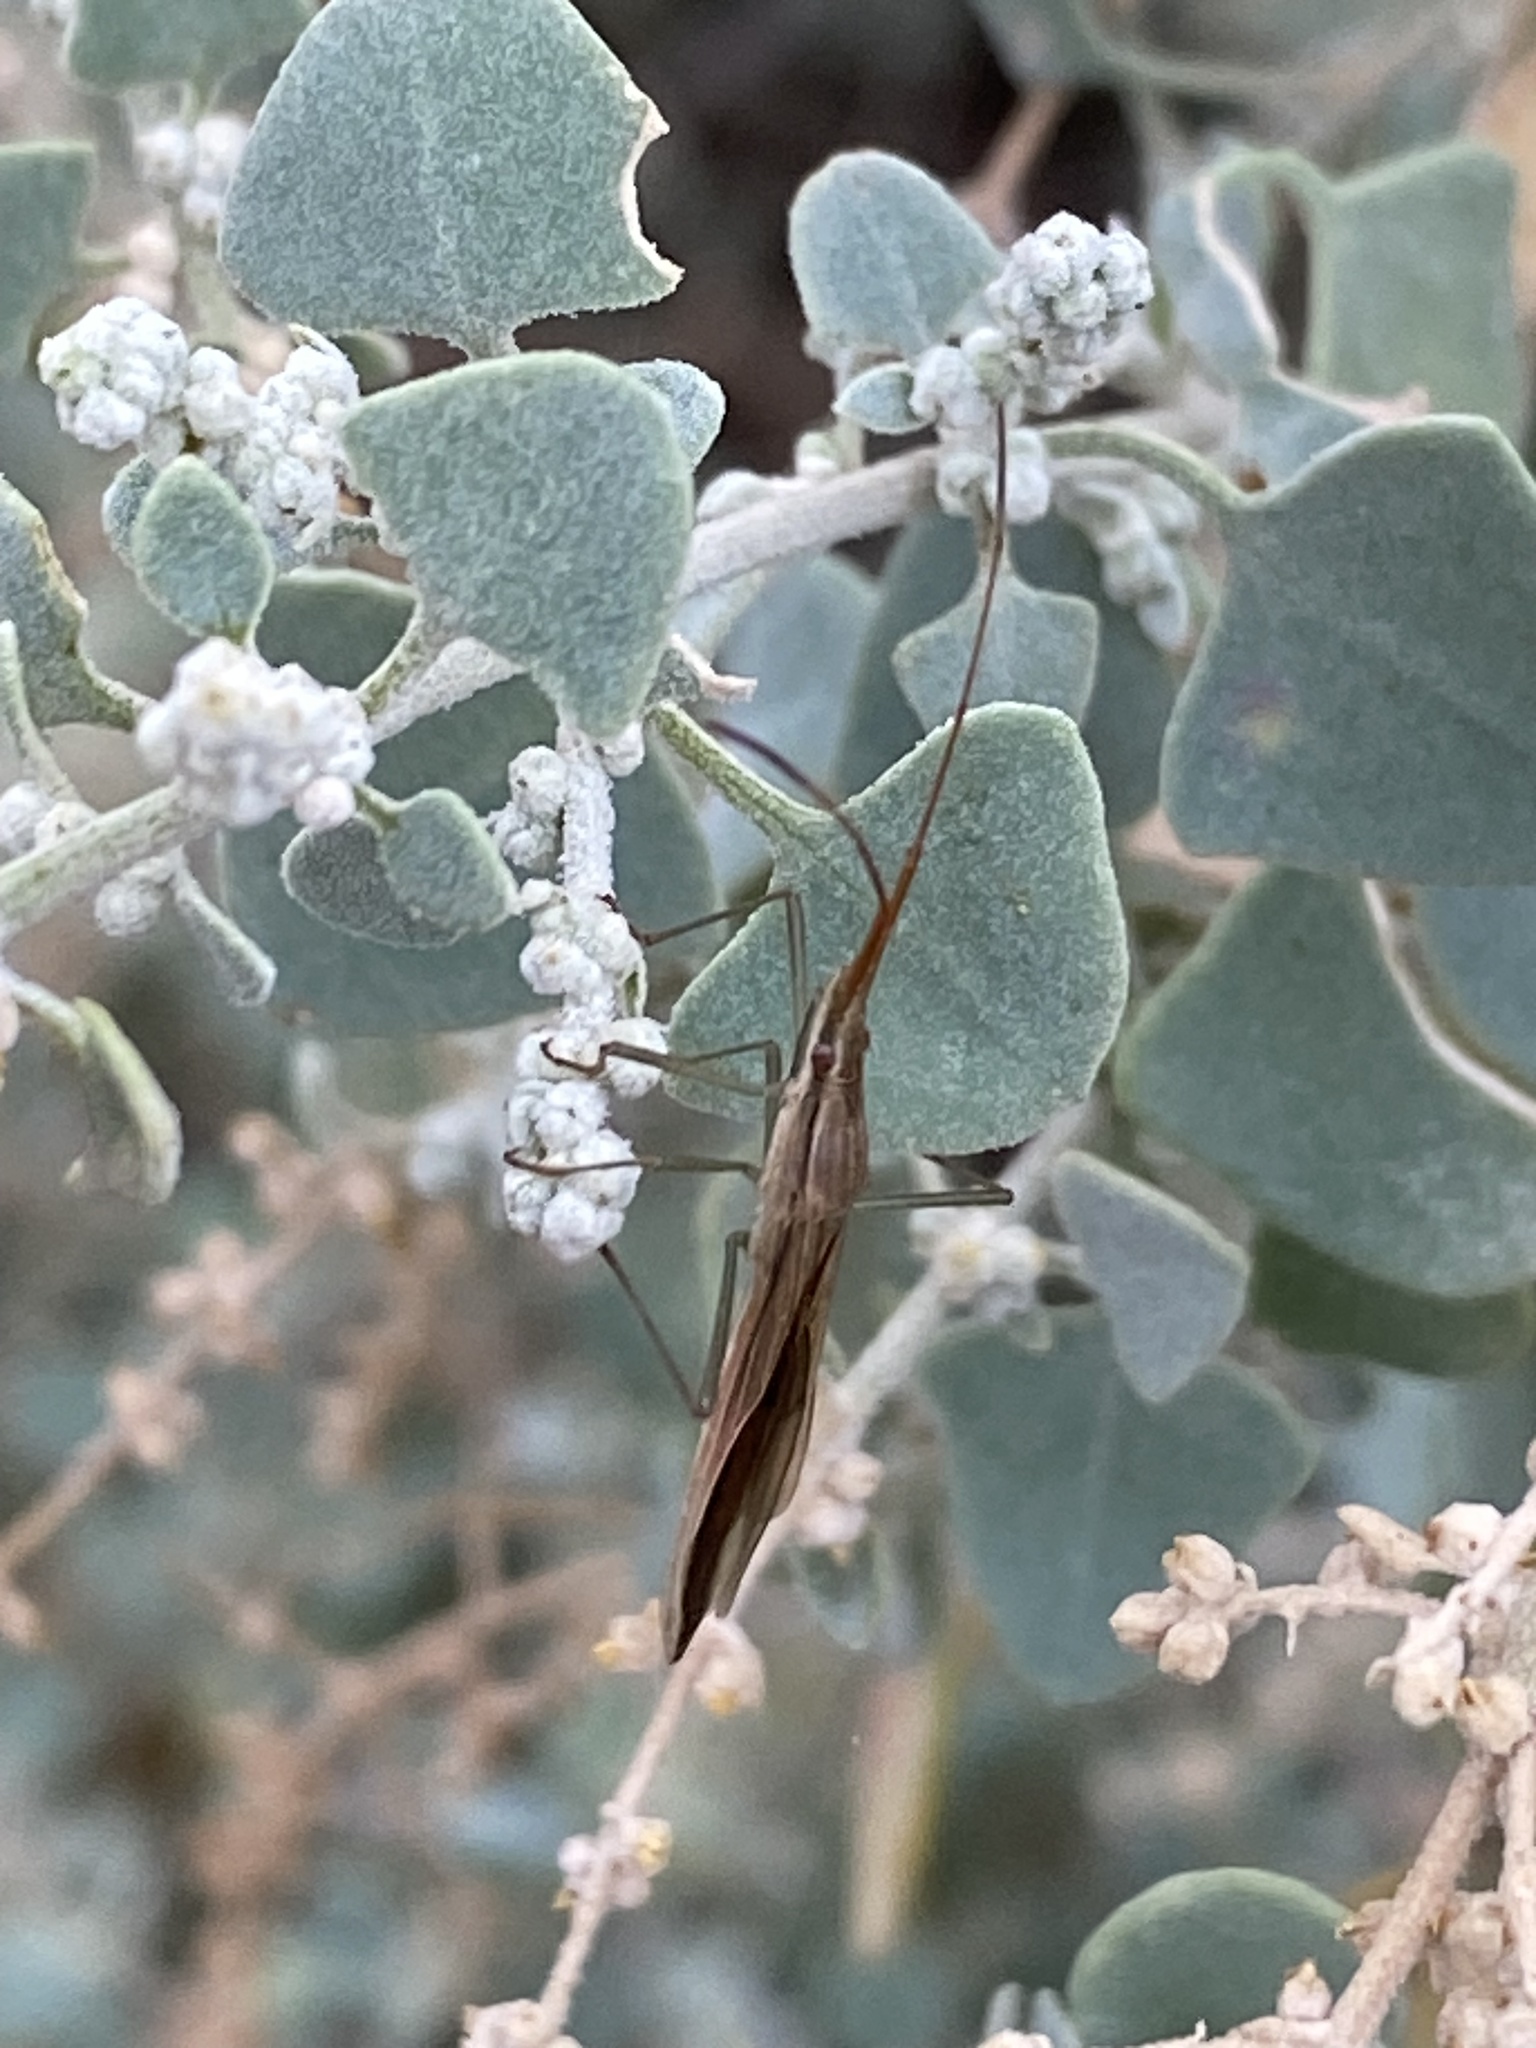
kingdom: Animalia
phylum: Arthropoda
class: Insecta
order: Hemiptera
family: Alydidae
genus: Mutusca
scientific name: Mutusca brevicornis
